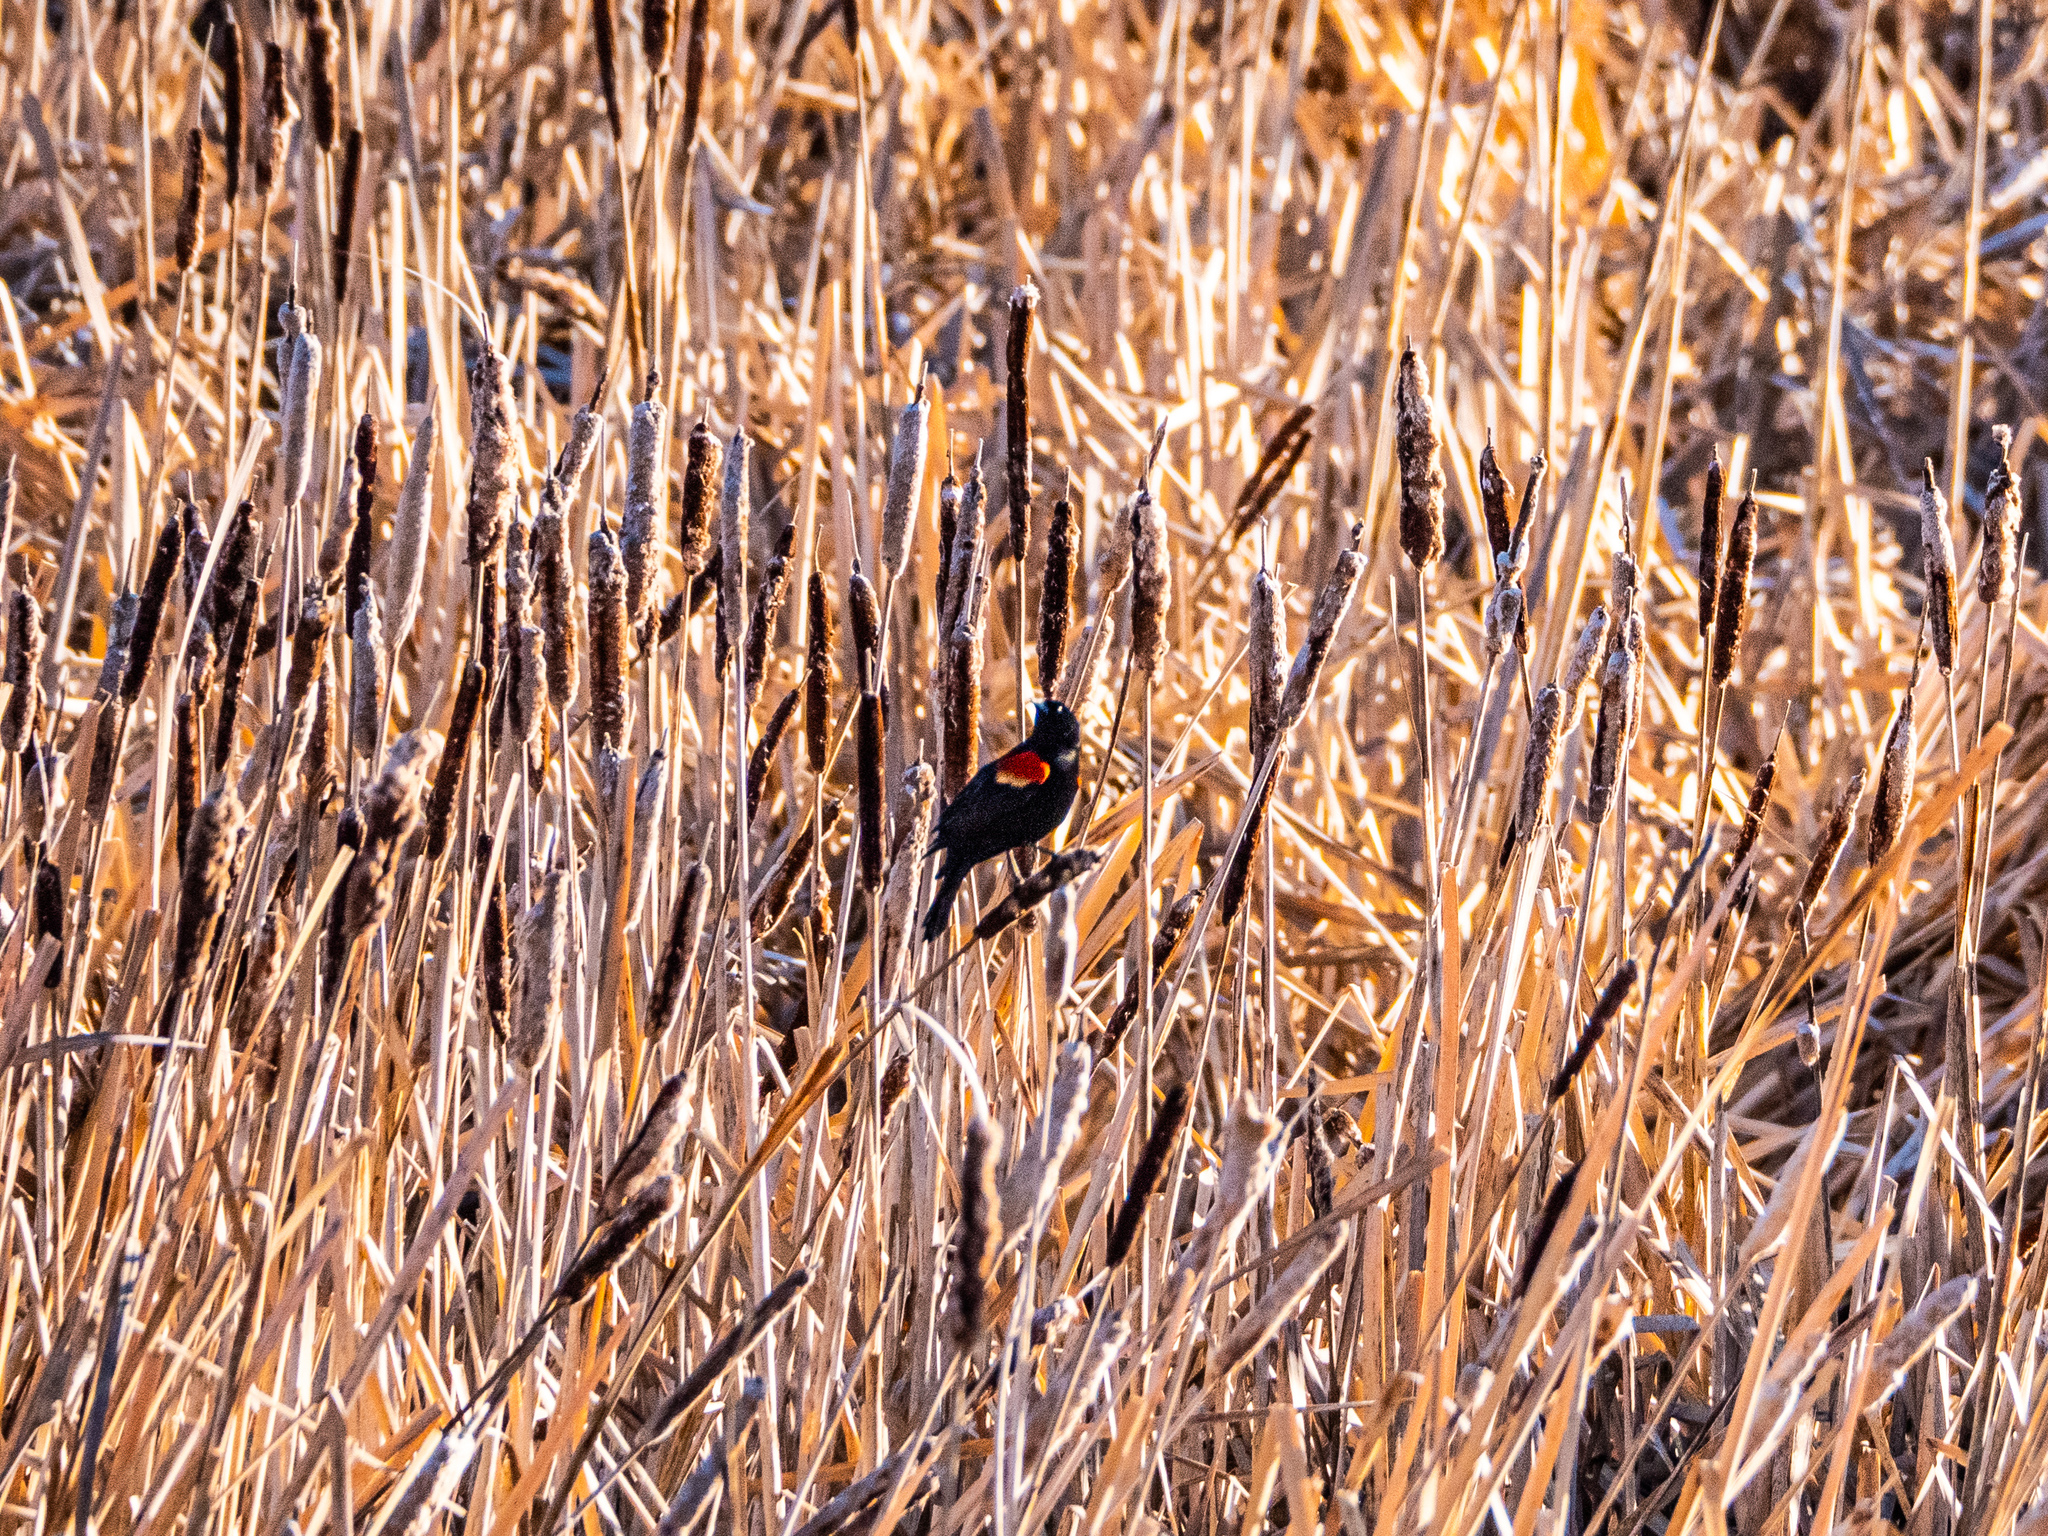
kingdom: Animalia
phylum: Chordata
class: Aves
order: Passeriformes
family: Icteridae
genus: Agelaius
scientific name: Agelaius phoeniceus
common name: Red-winged blackbird
